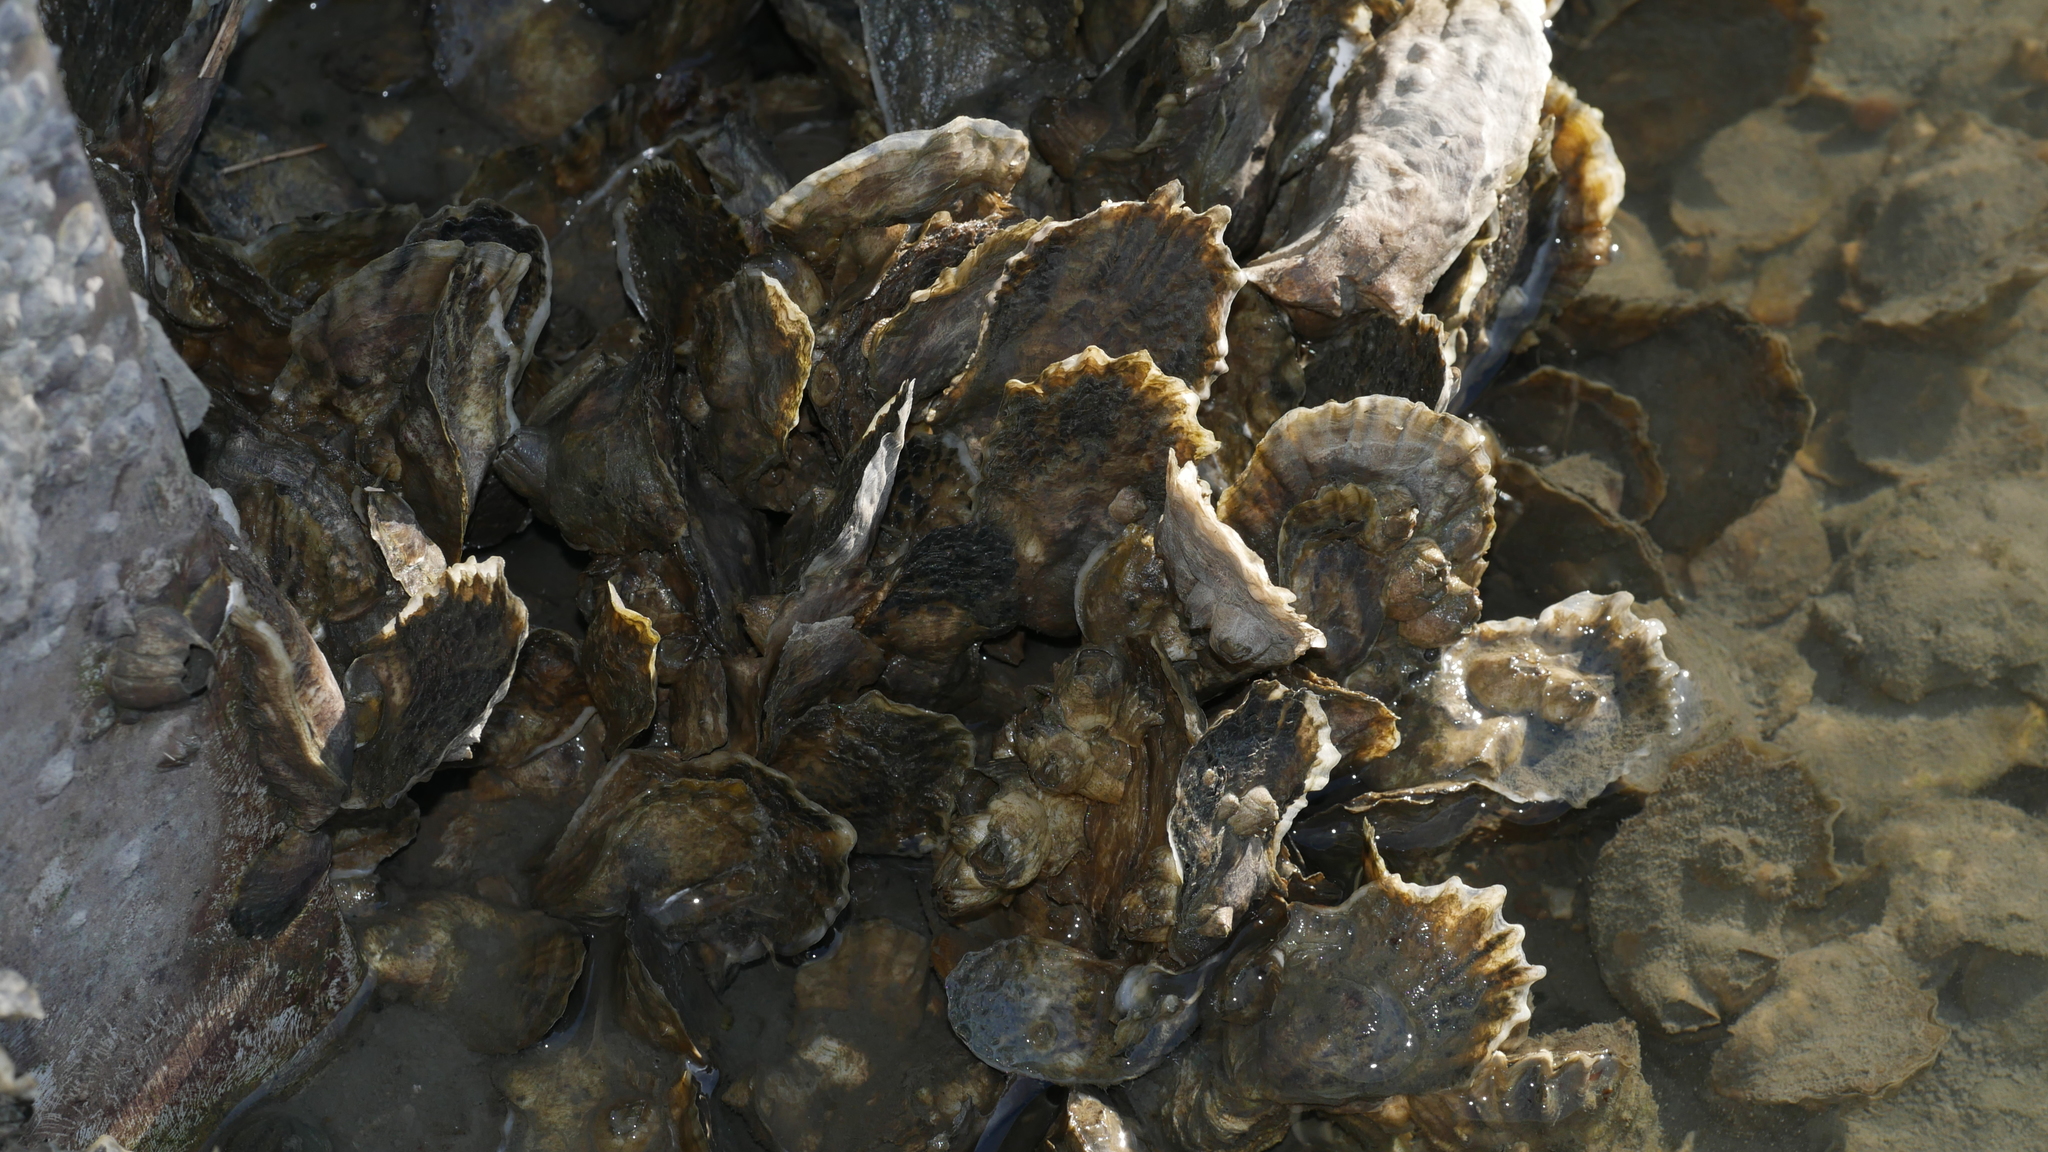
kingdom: Animalia
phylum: Mollusca
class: Bivalvia
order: Ostreida
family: Ostreidae
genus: Crassostrea
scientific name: Crassostrea virginica
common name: American oyster
